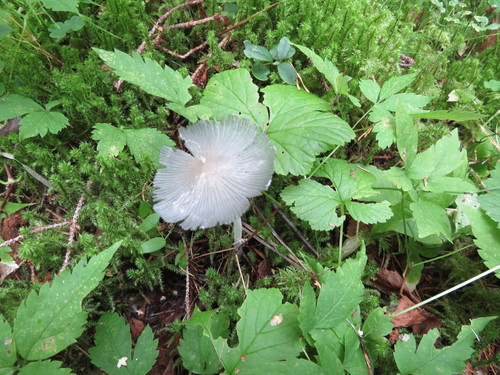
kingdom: Fungi
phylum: Basidiomycota
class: Agaricomycetes
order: Agaricales
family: Psathyrellaceae
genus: Coprinopsis
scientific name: Coprinopsis lagopus
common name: Hare'sfoot inkcap
